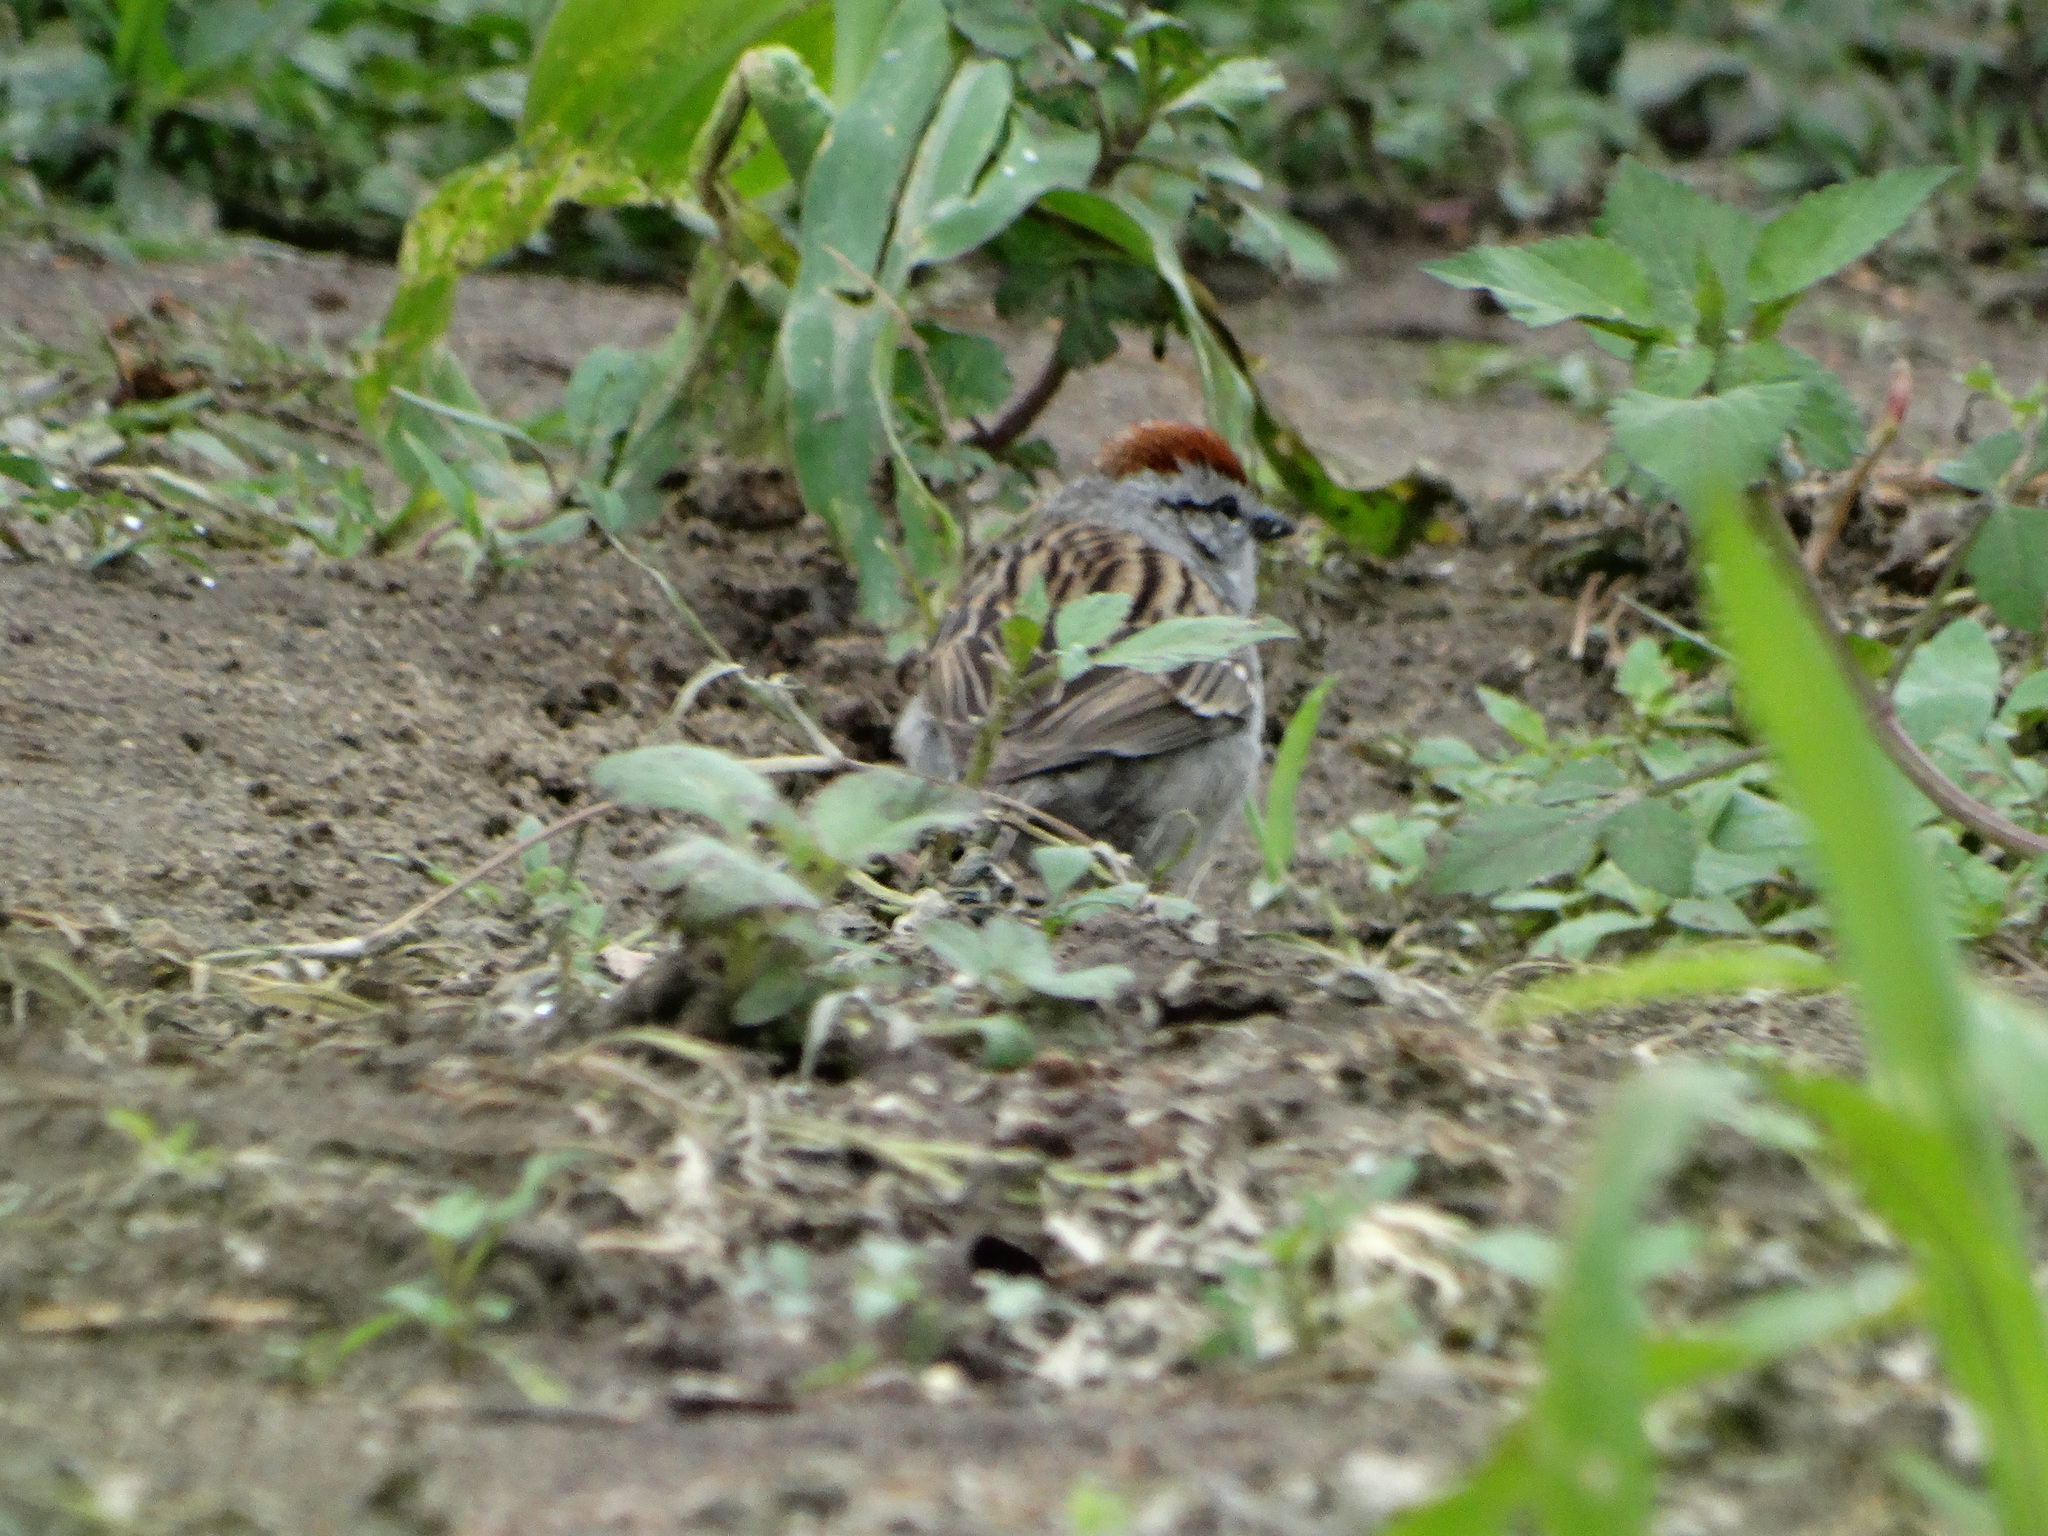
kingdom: Animalia
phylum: Chordata
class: Aves
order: Passeriformes
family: Passerellidae
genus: Spizella
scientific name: Spizella passerina
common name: Chipping sparrow
